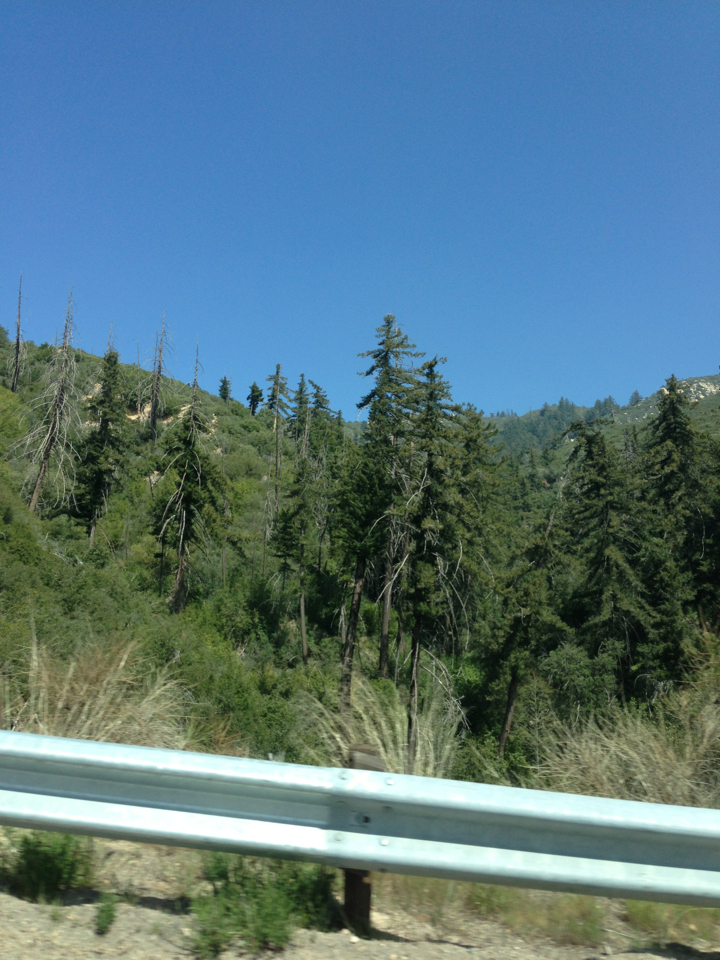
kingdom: Plantae
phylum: Tracheophyta
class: Pinopsida
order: Pinales
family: Pinaceae
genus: Pseudotsuga
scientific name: Pseudotsuga macrocarpa
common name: Big-cone douglas-fir
